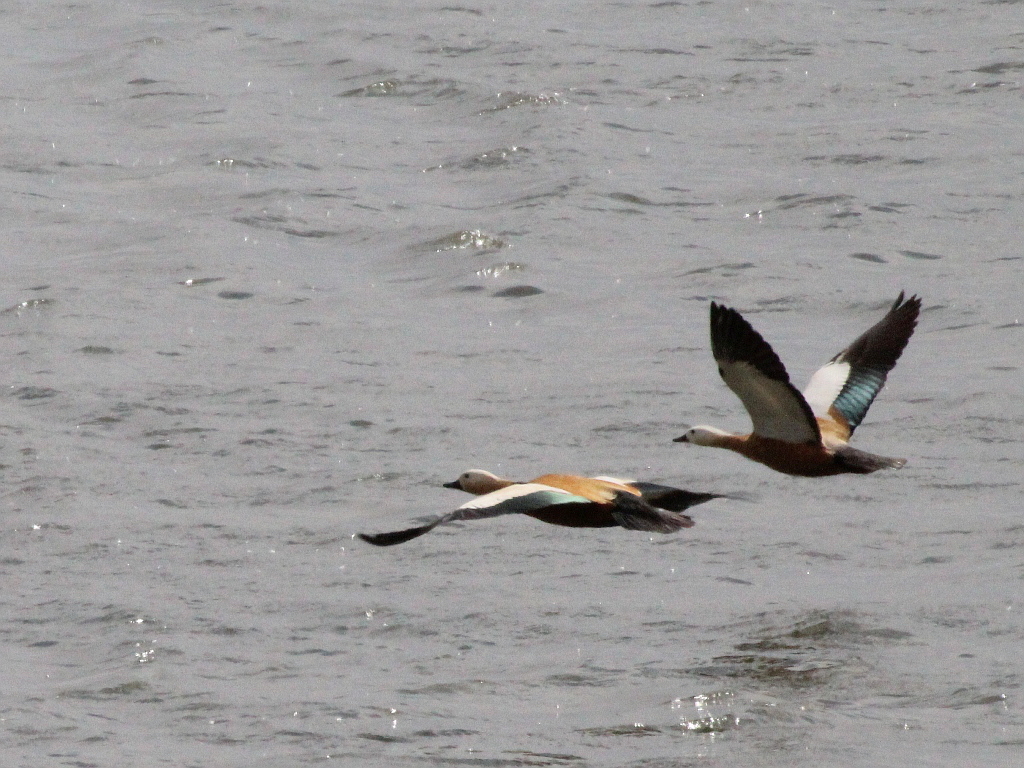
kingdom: Animalia
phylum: Chordata
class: Aves
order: Anseriformes
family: Anatidae
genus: Tadorna
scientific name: Tadorna ferruginea
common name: Ruddy shelduck
